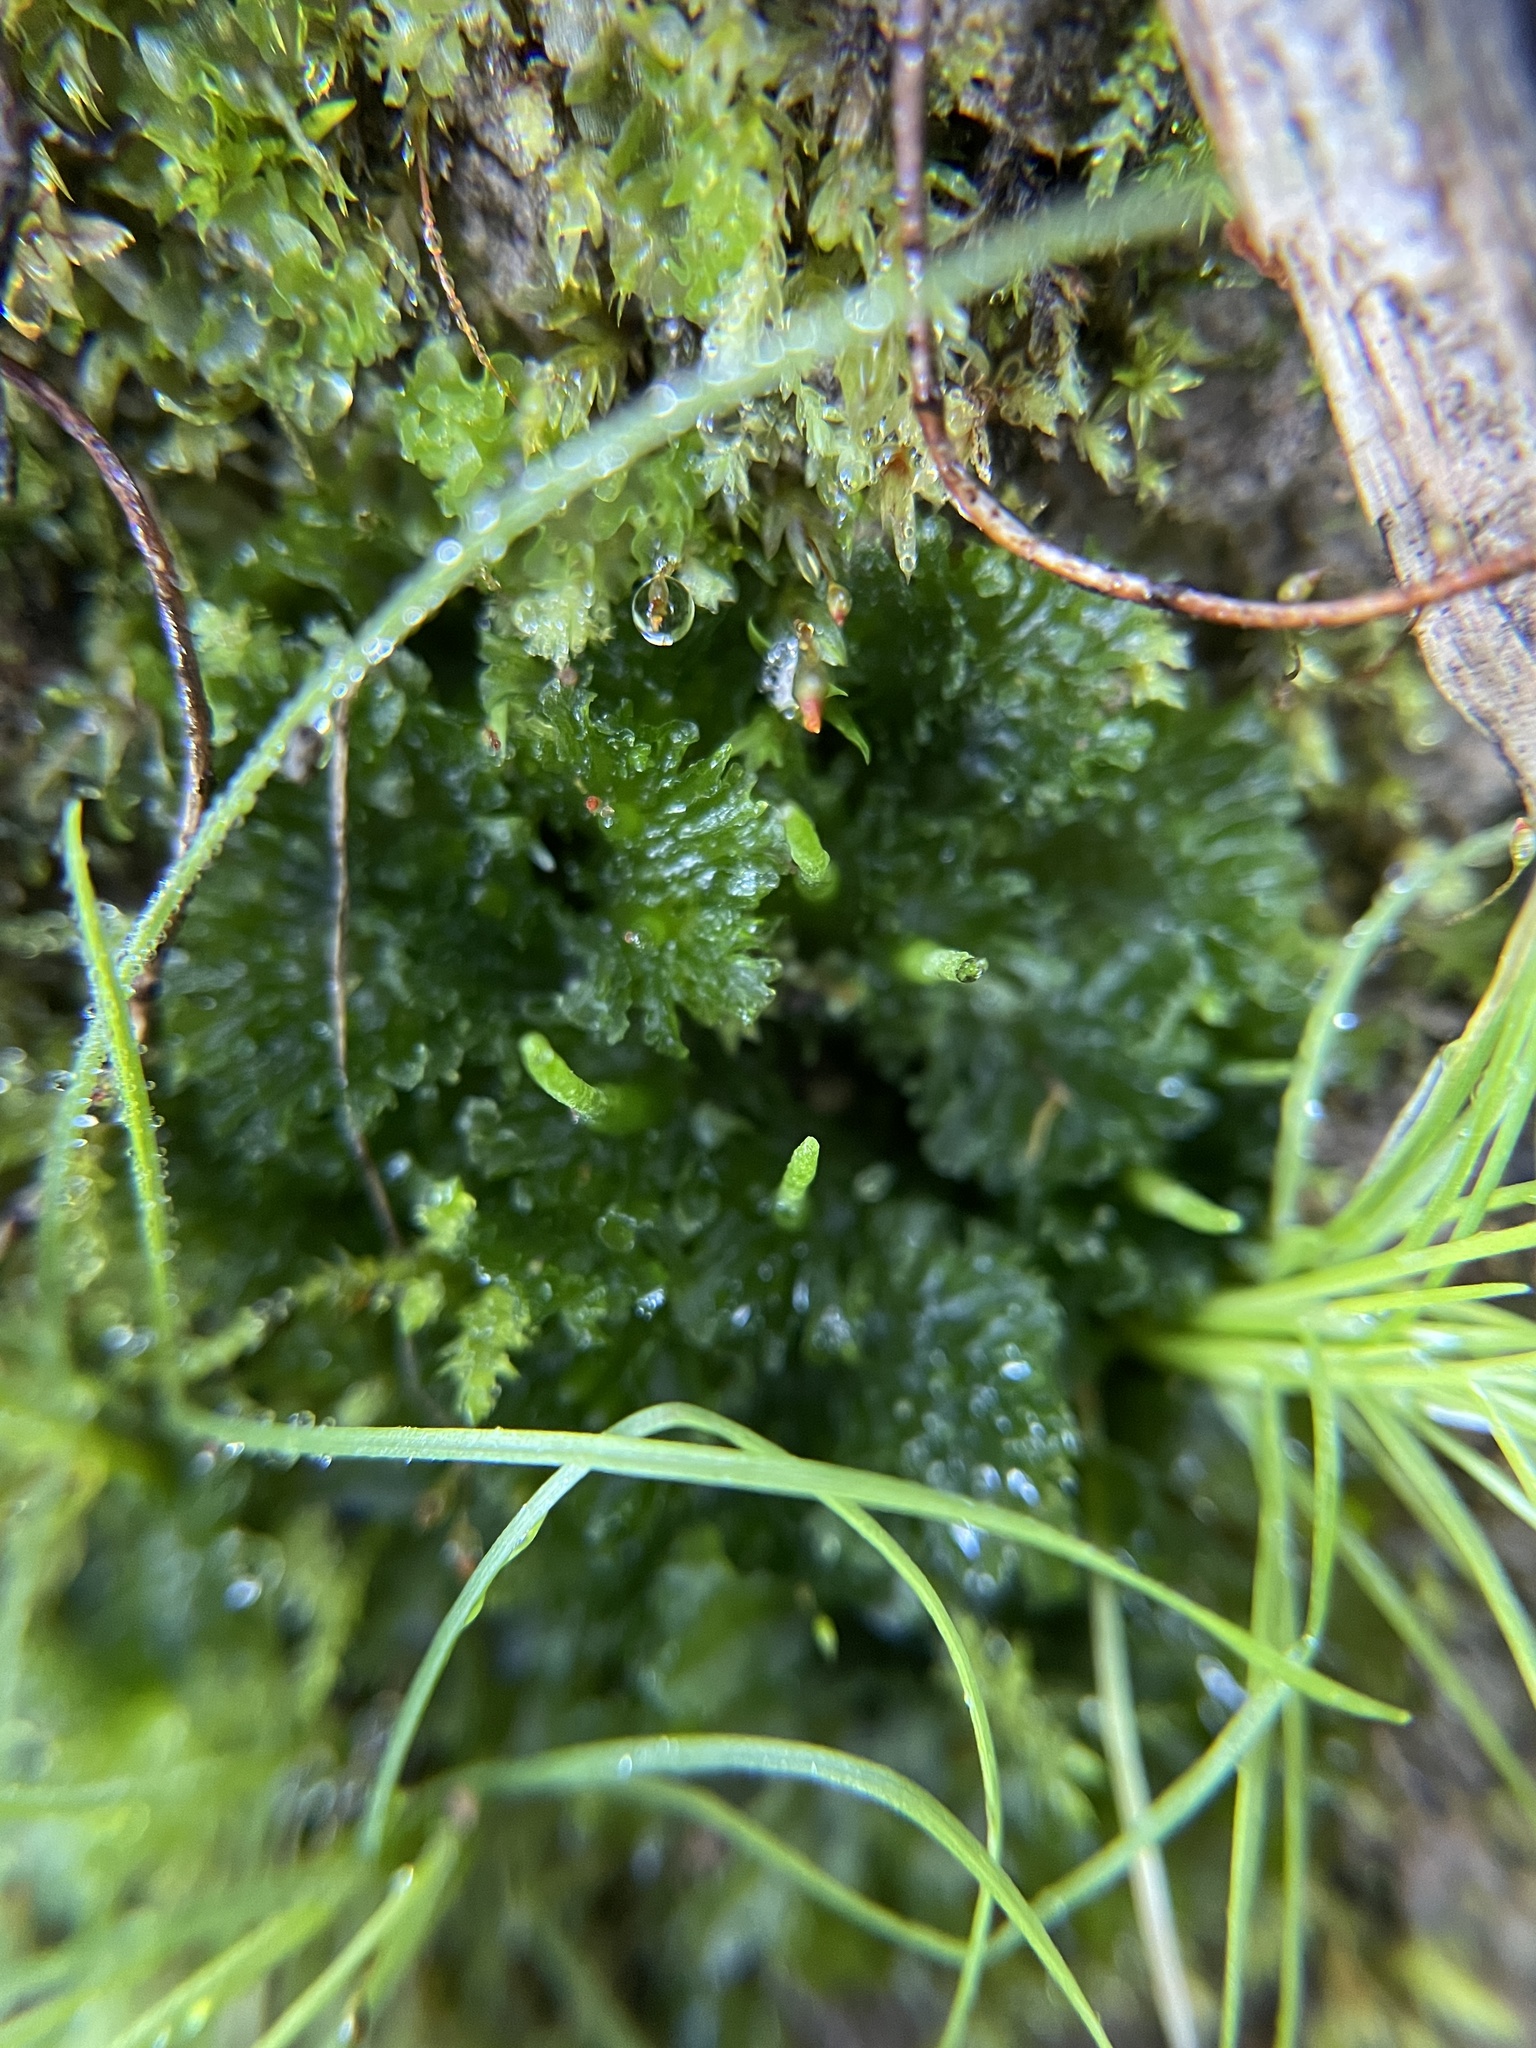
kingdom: Plantae
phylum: Anthocerotophyta
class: Anthocerotopsida
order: Anthocerotales
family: Anthocerotaceae
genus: Anthoceros
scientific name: Anthoceros fusiformis
